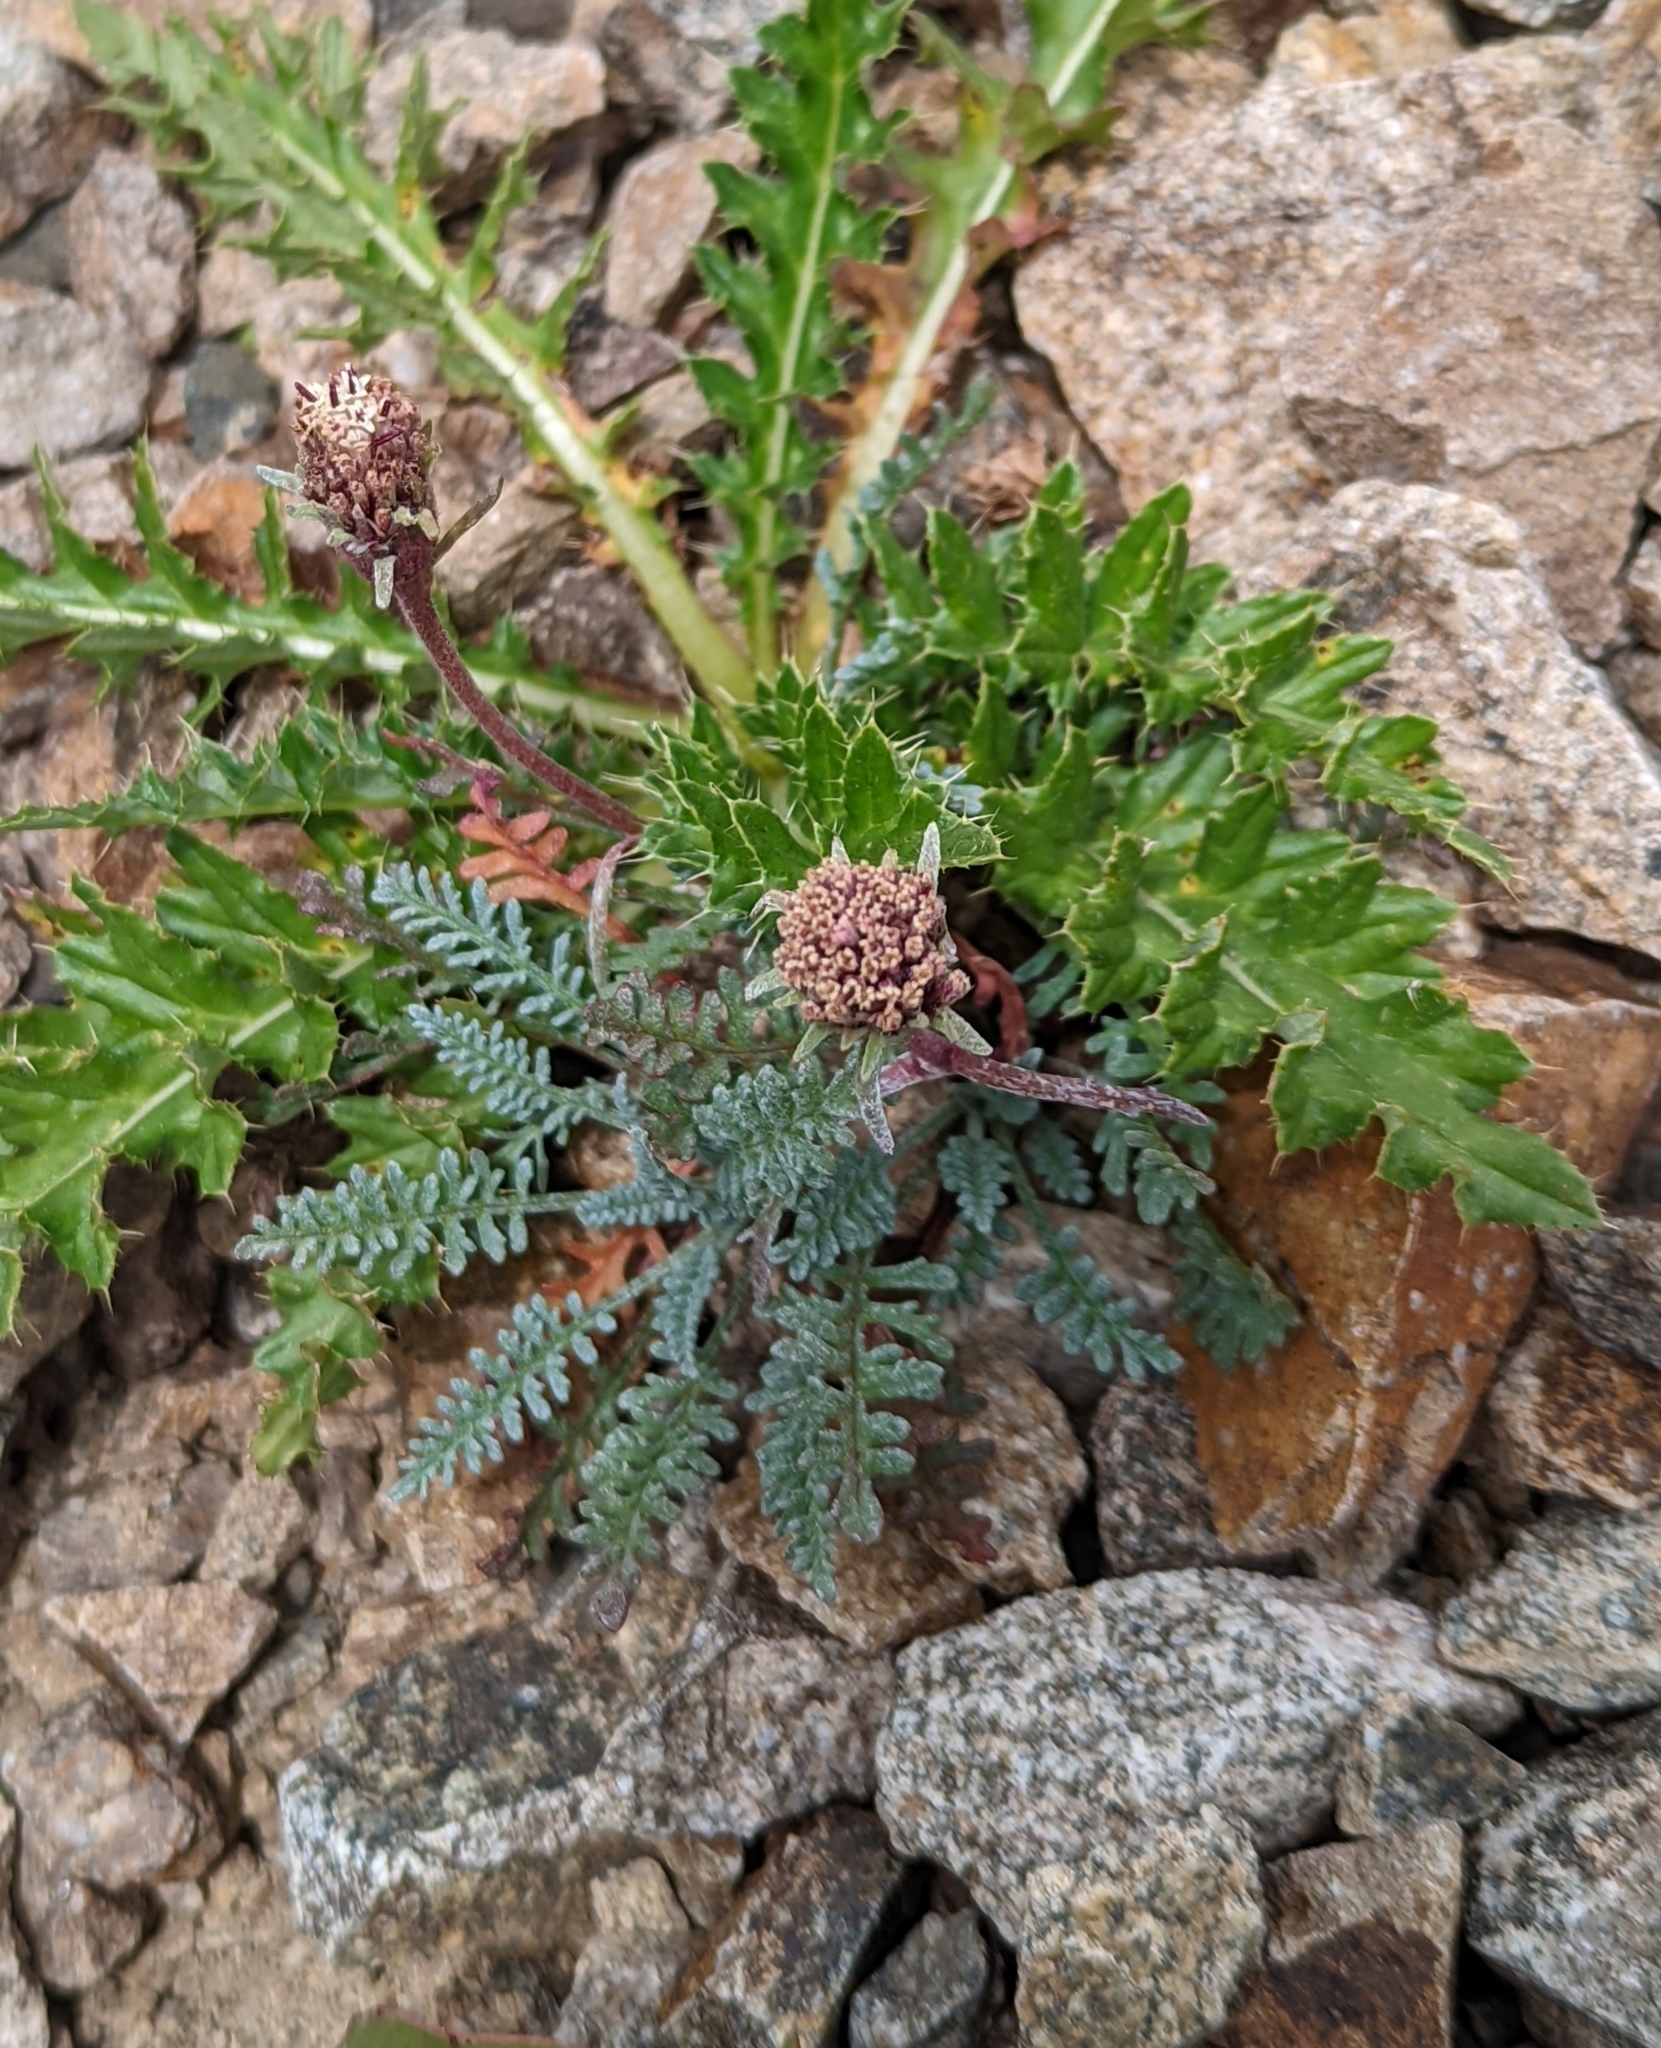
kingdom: Plantae
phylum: Tracheophyta
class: Magnoliopsida
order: Asterales
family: Asteraceae
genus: Chaenactis
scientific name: Chaenactis douglasii
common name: Hoary pincushion
